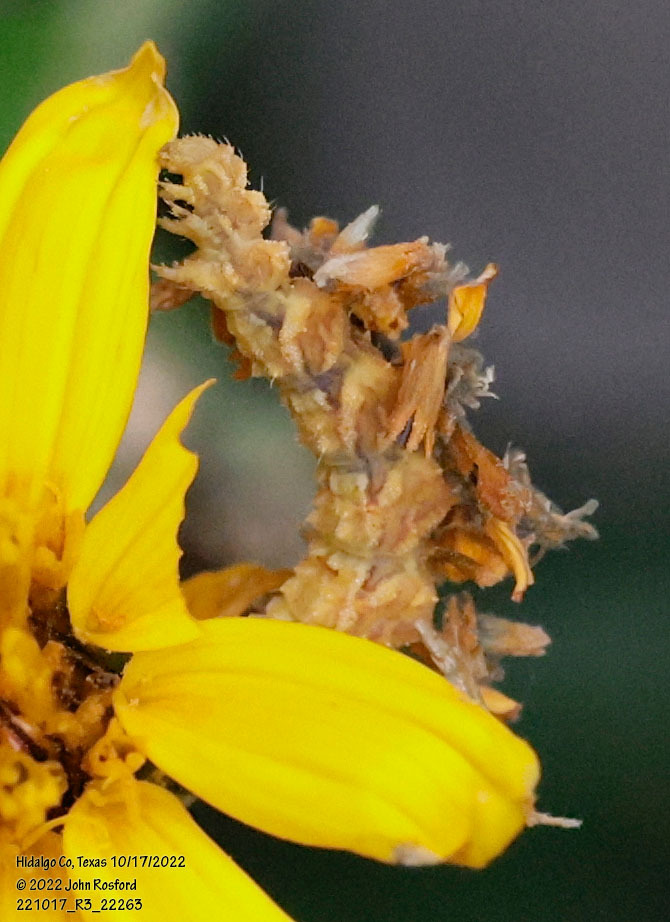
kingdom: Animalia
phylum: Arthropoda
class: Insecta
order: Lepidoptera
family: Geometridae
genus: Synchlora
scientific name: Synchlora aerata
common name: Wavy-lined emerald
